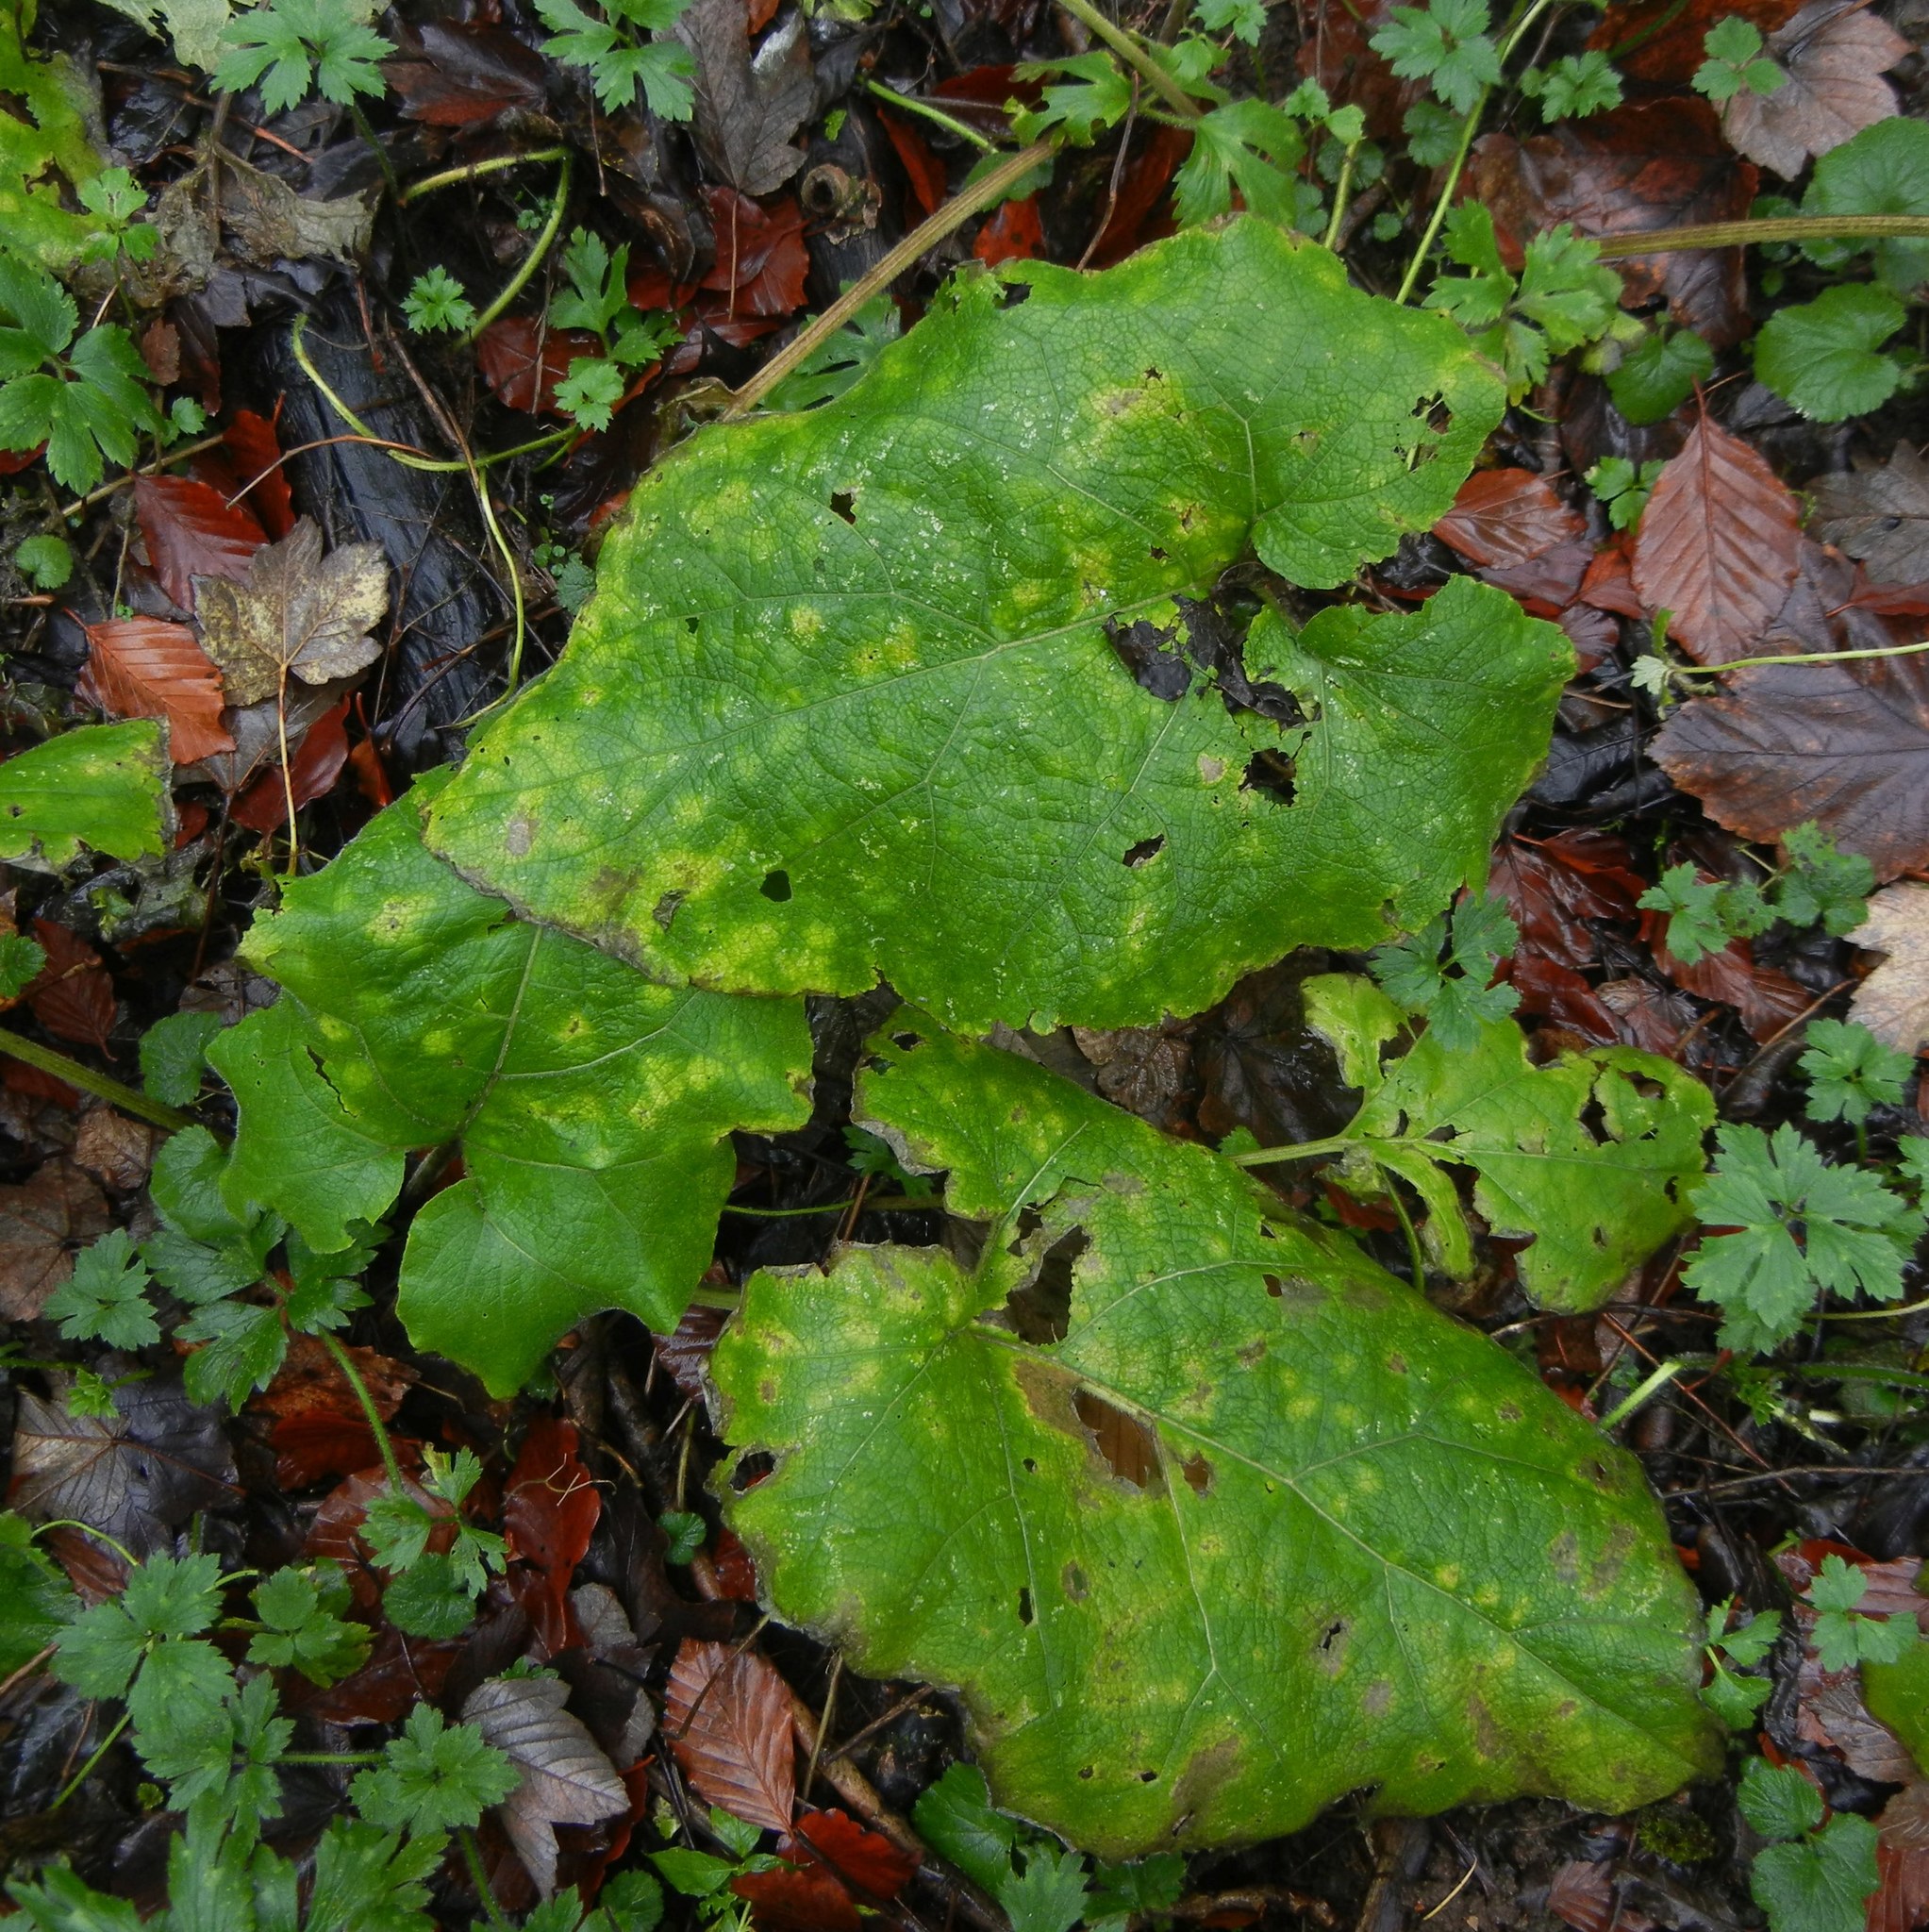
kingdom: Plantae
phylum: Tracheophyta
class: Magnoliopsida
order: Asterales
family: Asteraceae
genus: Arctium
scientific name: Arctium minus
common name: Lesser burdock
